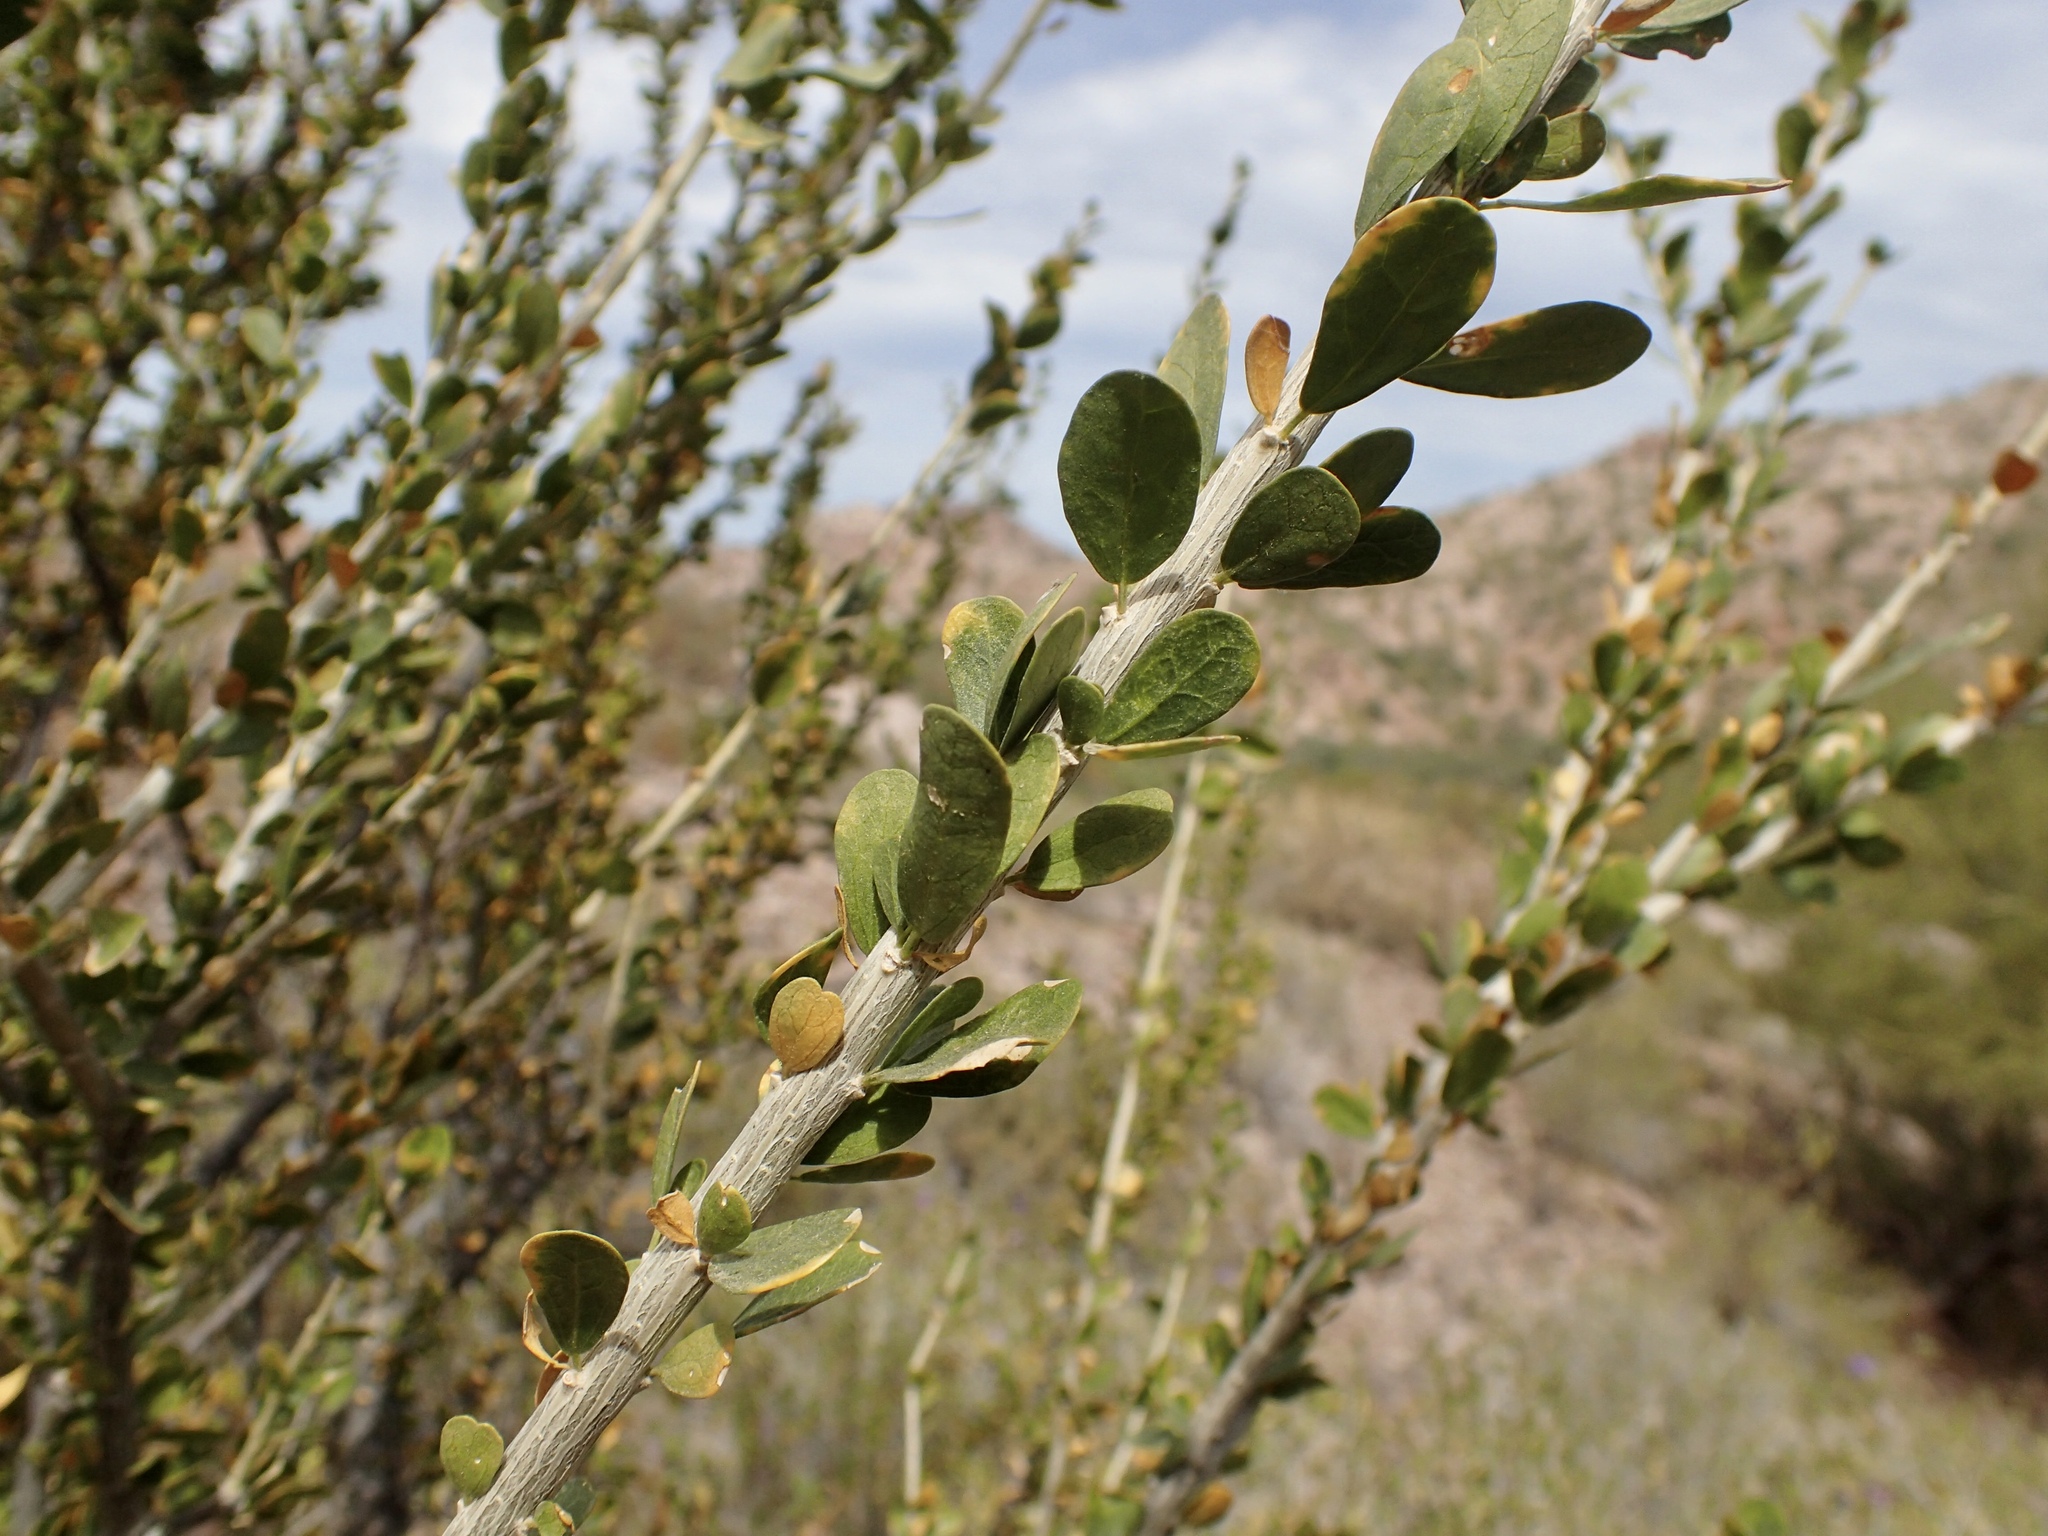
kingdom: Plantae
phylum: Tracheophyta
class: Magnoliopsida
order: Malpighiales
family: Euphorbiaceae
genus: Adelia
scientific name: Adelia brandegeei
